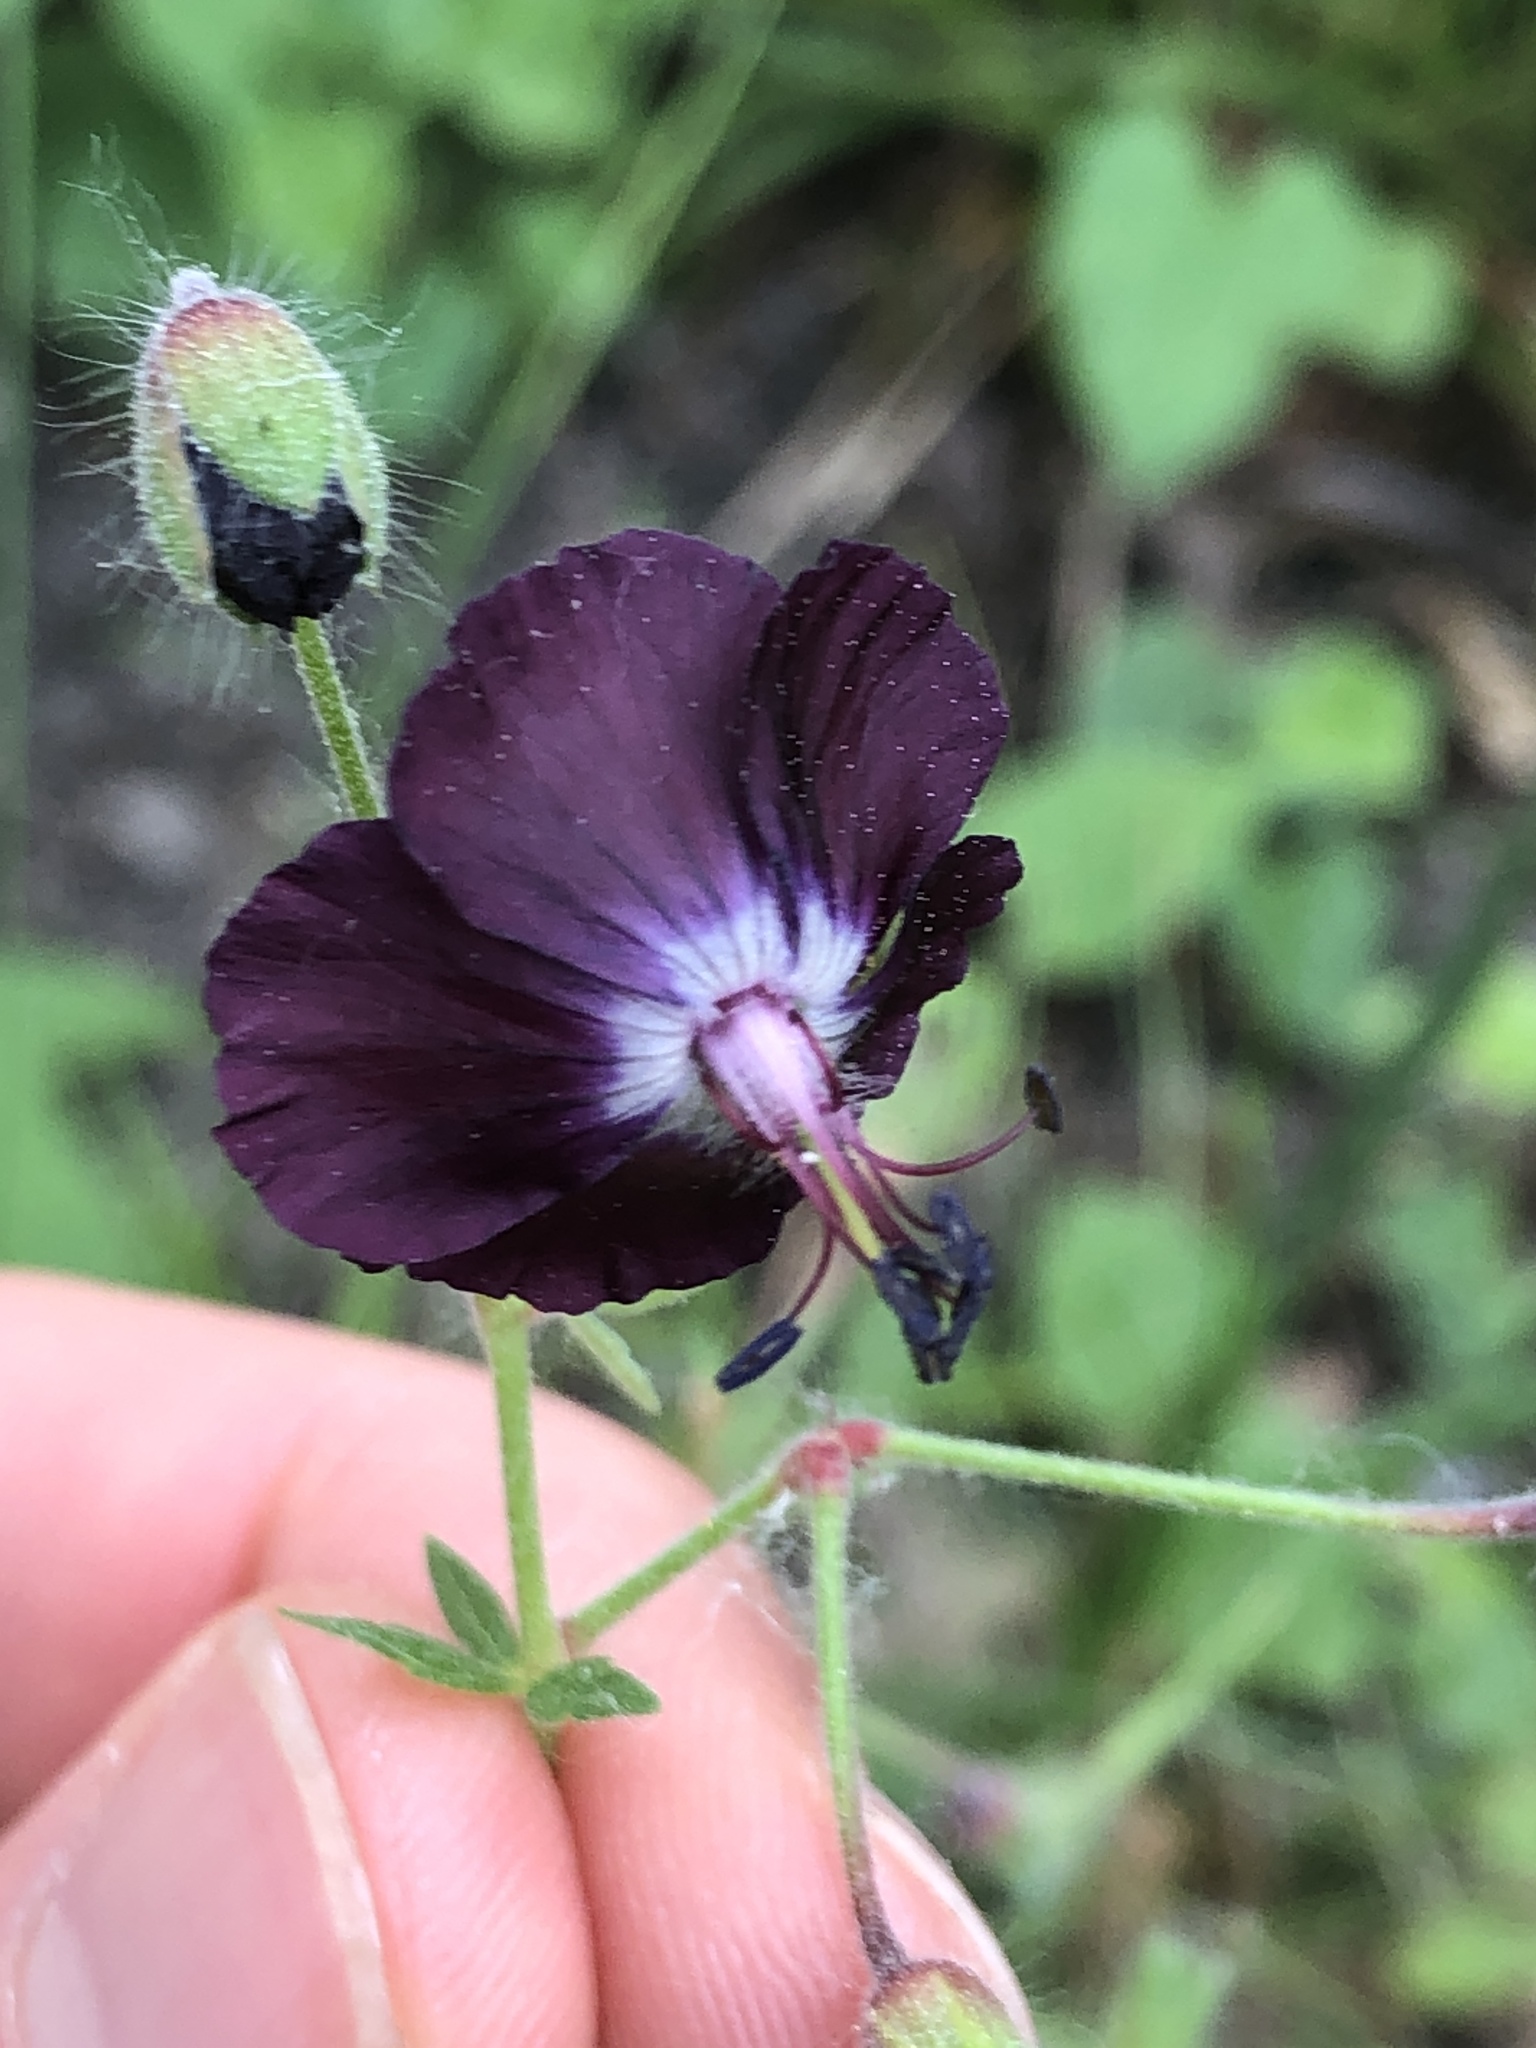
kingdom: Plantae
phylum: Tracheophyta
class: Magnoliopsida
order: Geraniales
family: Geraniaceae
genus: Geranium
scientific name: Geranium phaeum
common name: Dusky crane's-bill
